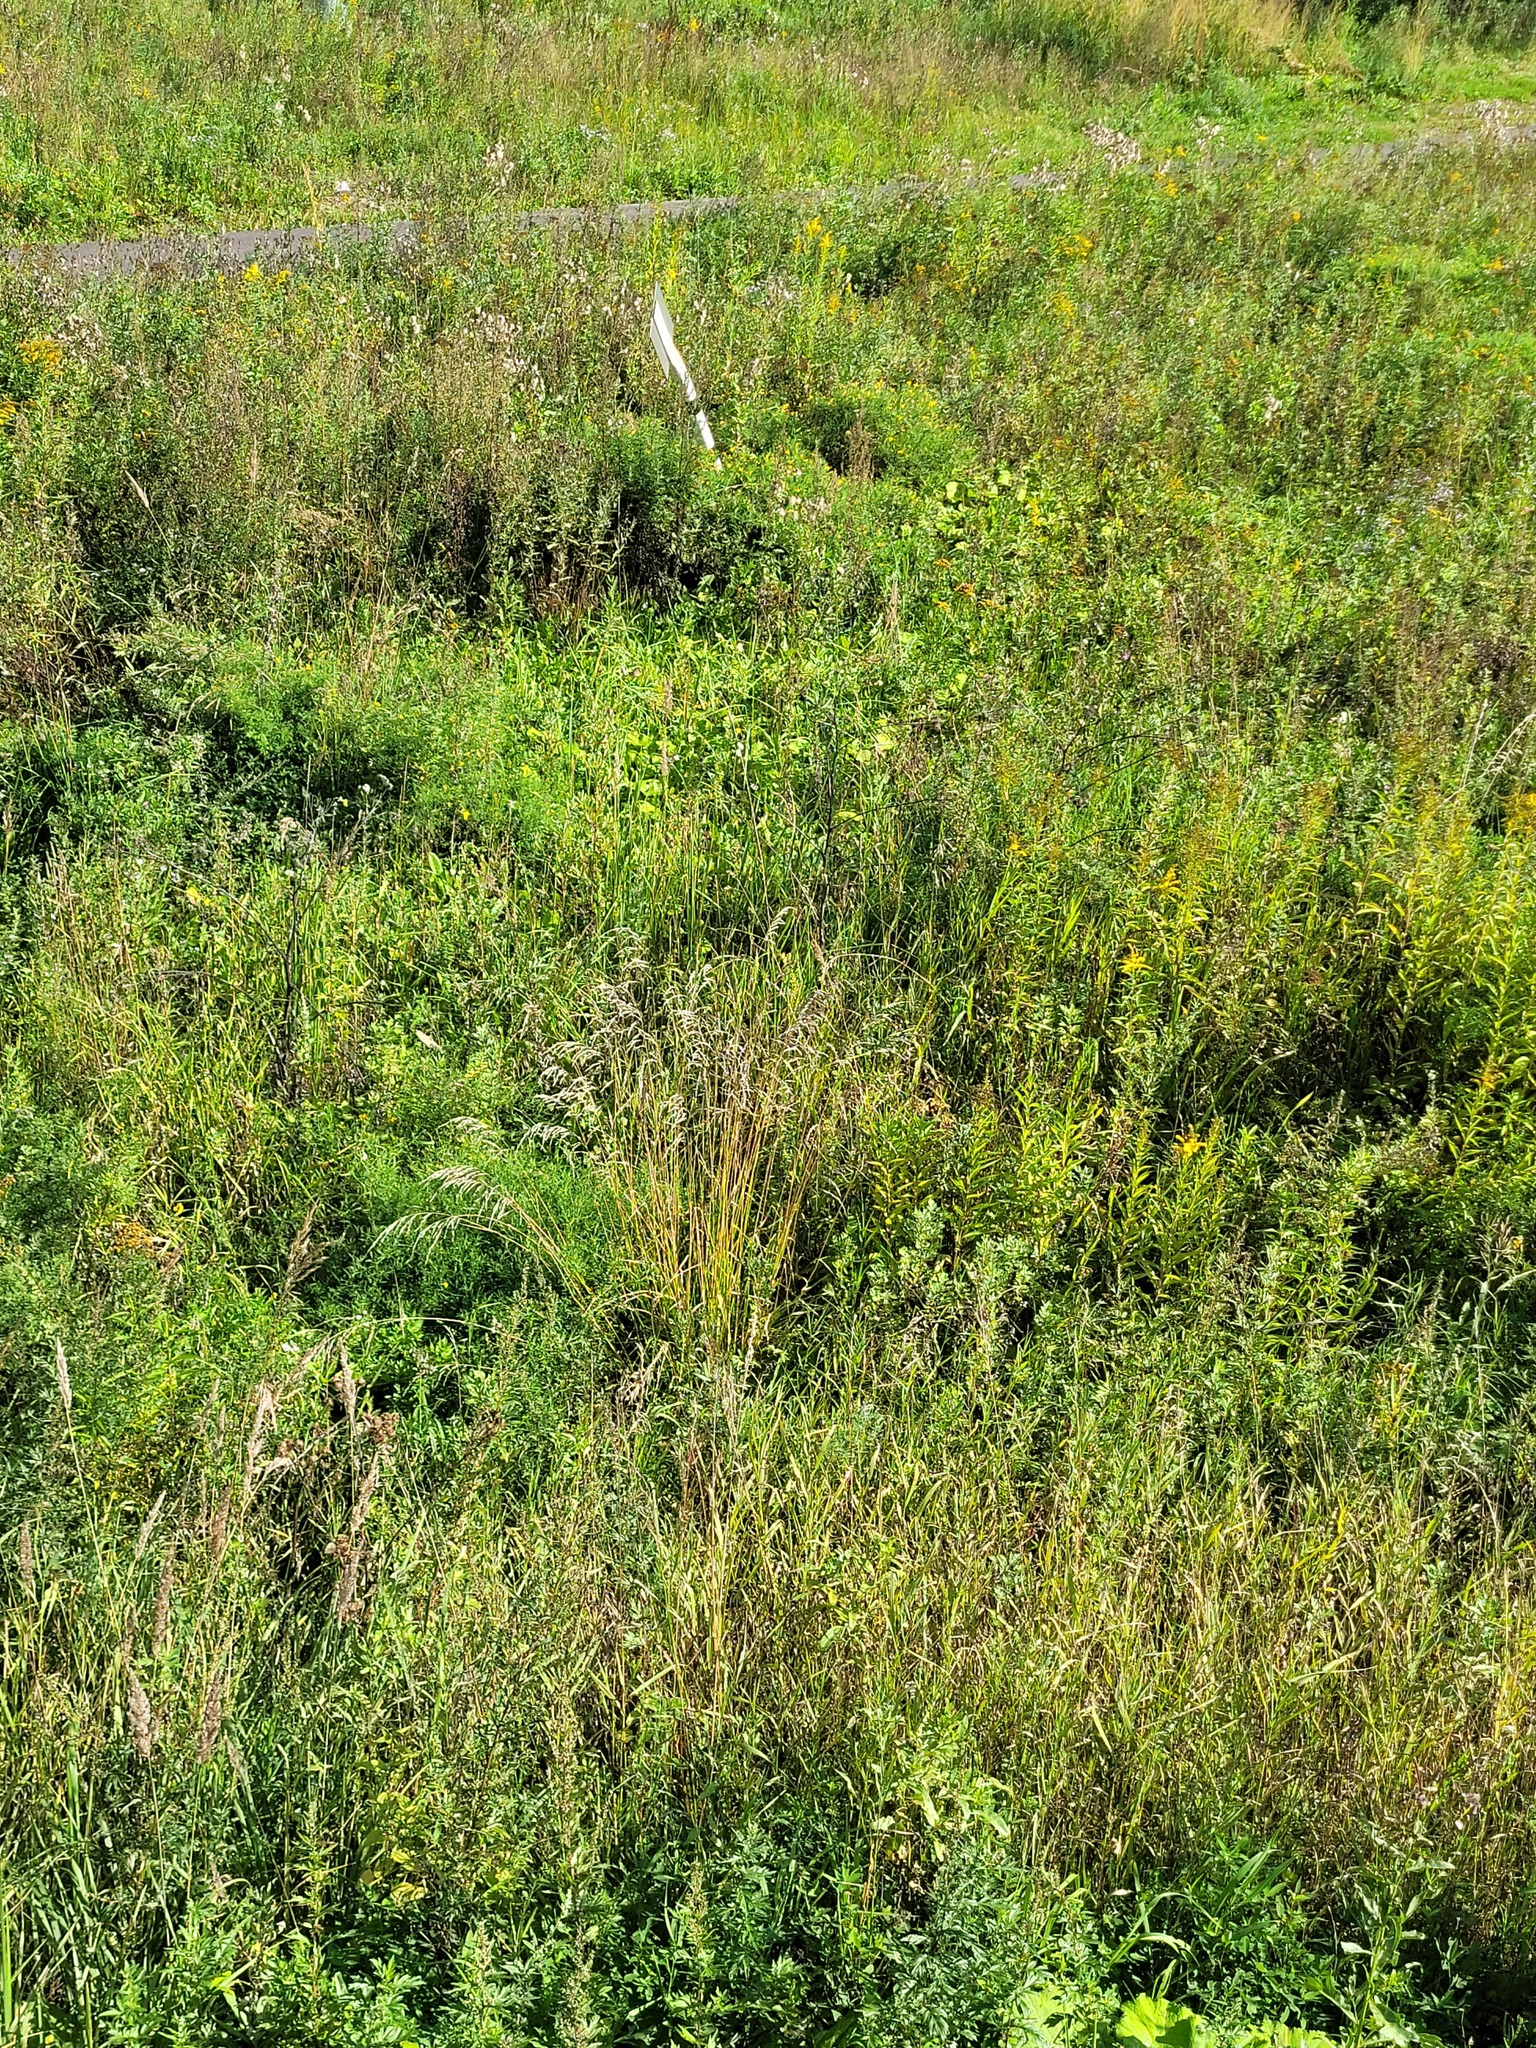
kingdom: Plantae
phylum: Tracheophyta
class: Liliopsida
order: Poales
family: Poaceae
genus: Lolium
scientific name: Lolium arundinaceum
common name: Reed fescue
